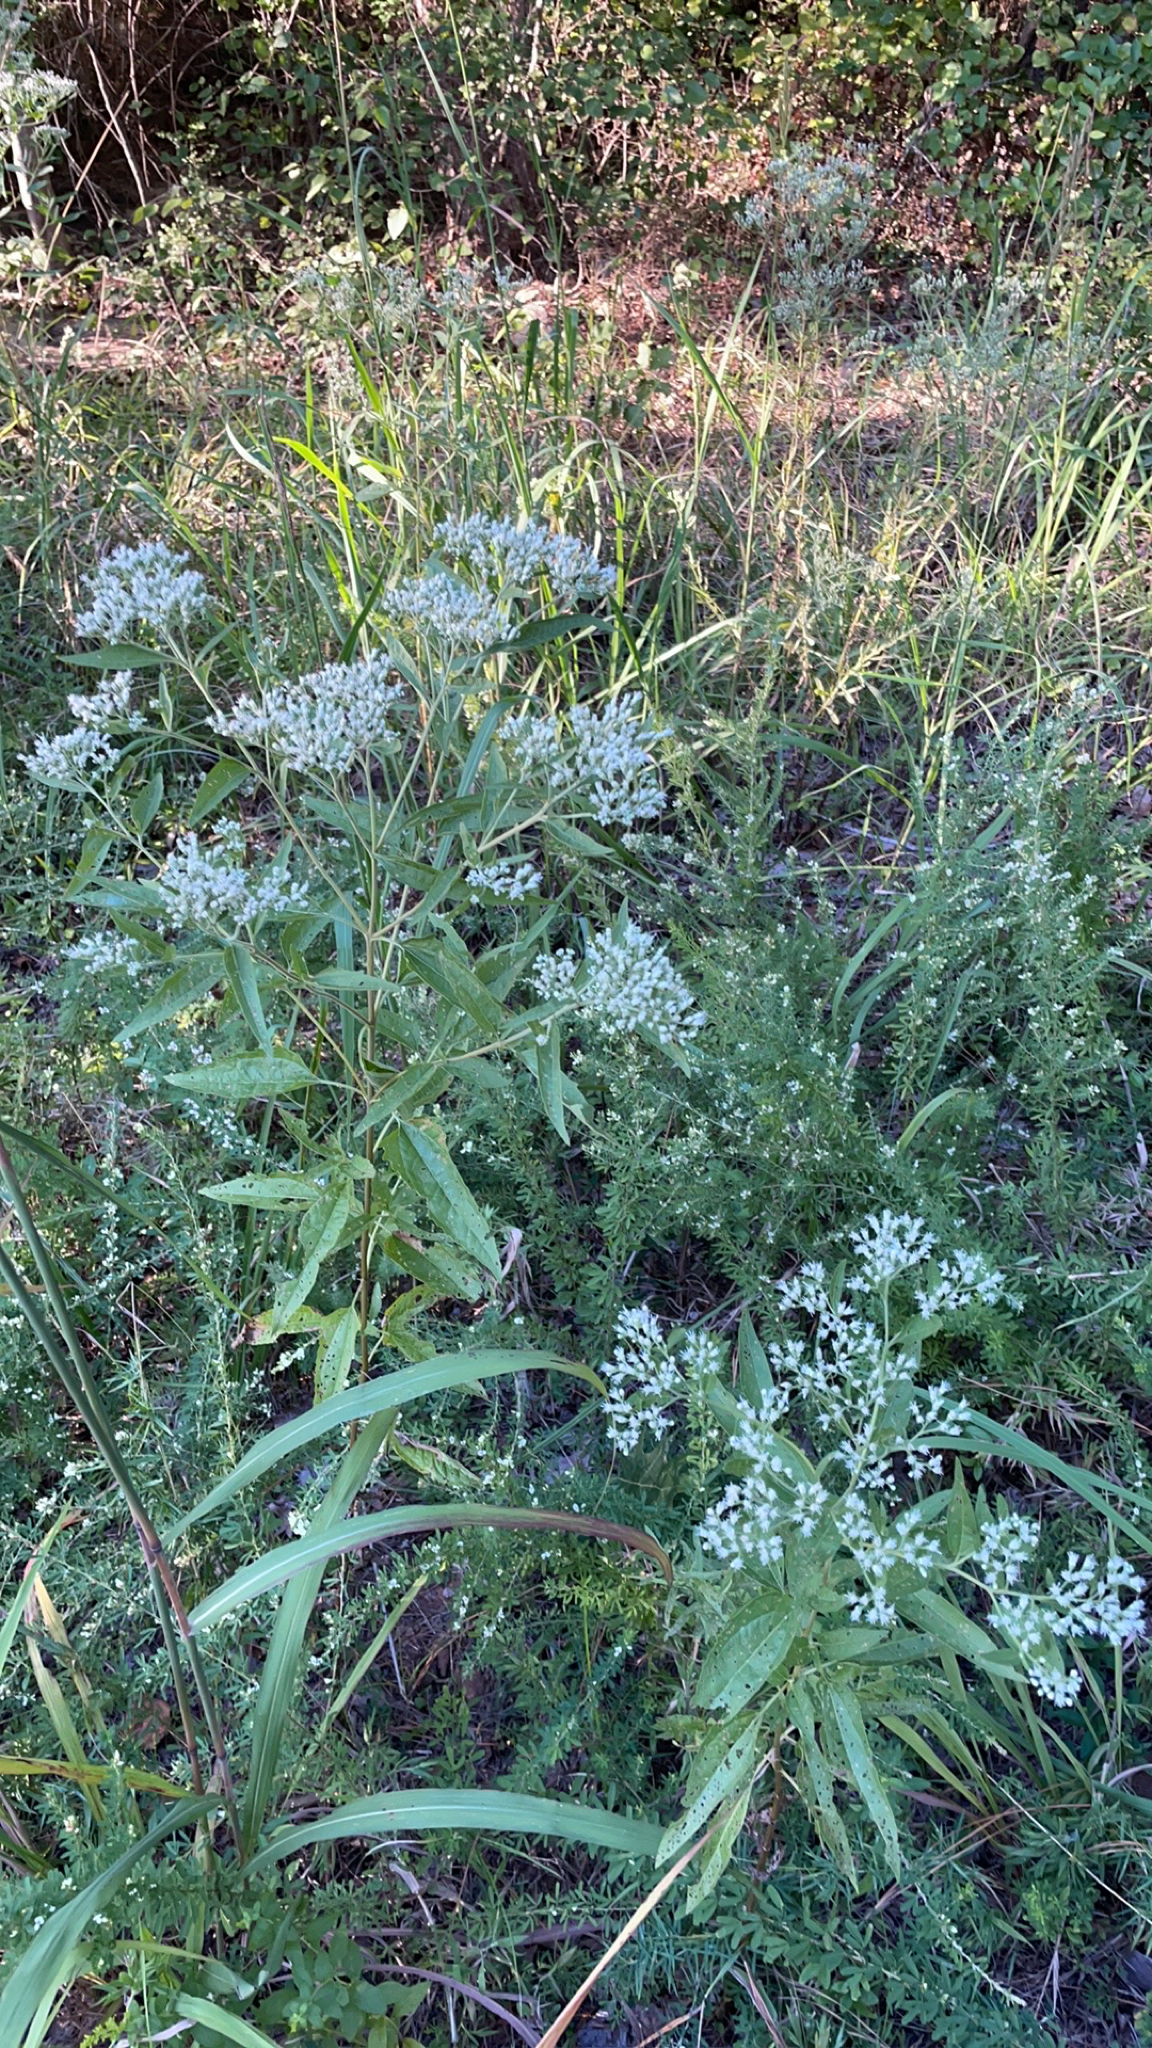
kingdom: Plantae
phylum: Tracheophyta
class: Magnoliopsida
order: Asterales
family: Asteraceae
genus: Eupatorium
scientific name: Eupatorium serotinum
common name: Late boneset
